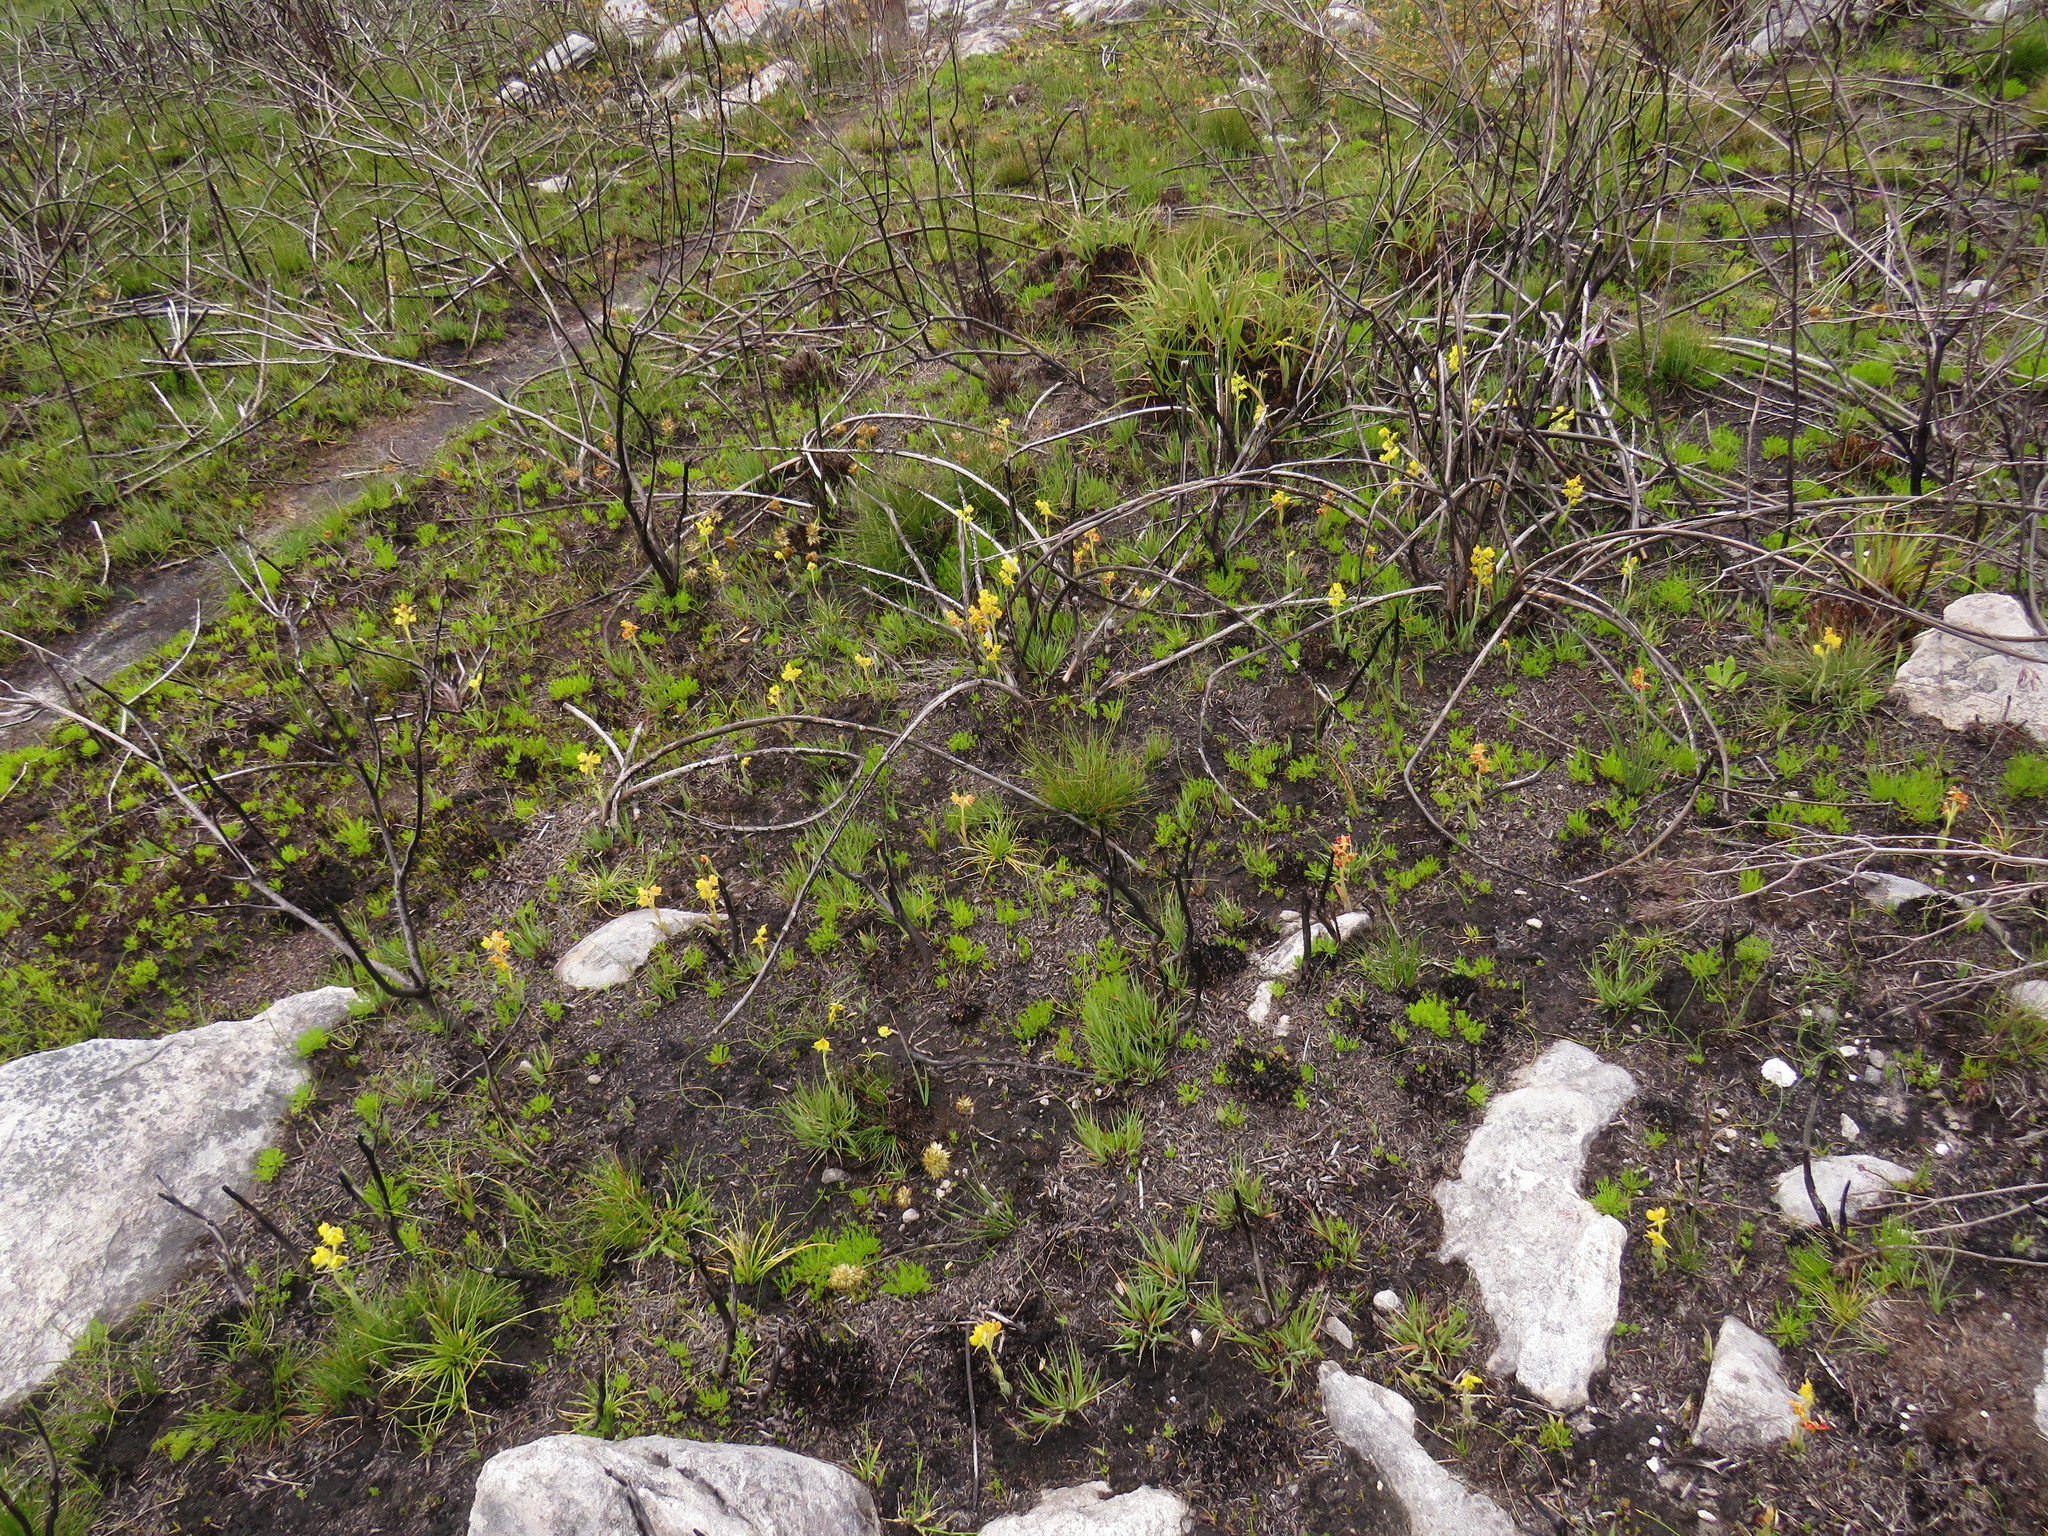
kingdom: Plantae
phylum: Tracheophyta
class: Liliopsida
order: Asparagales
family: Orchidaceae
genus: Pterygodium
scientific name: Pterygodium acutifolium
